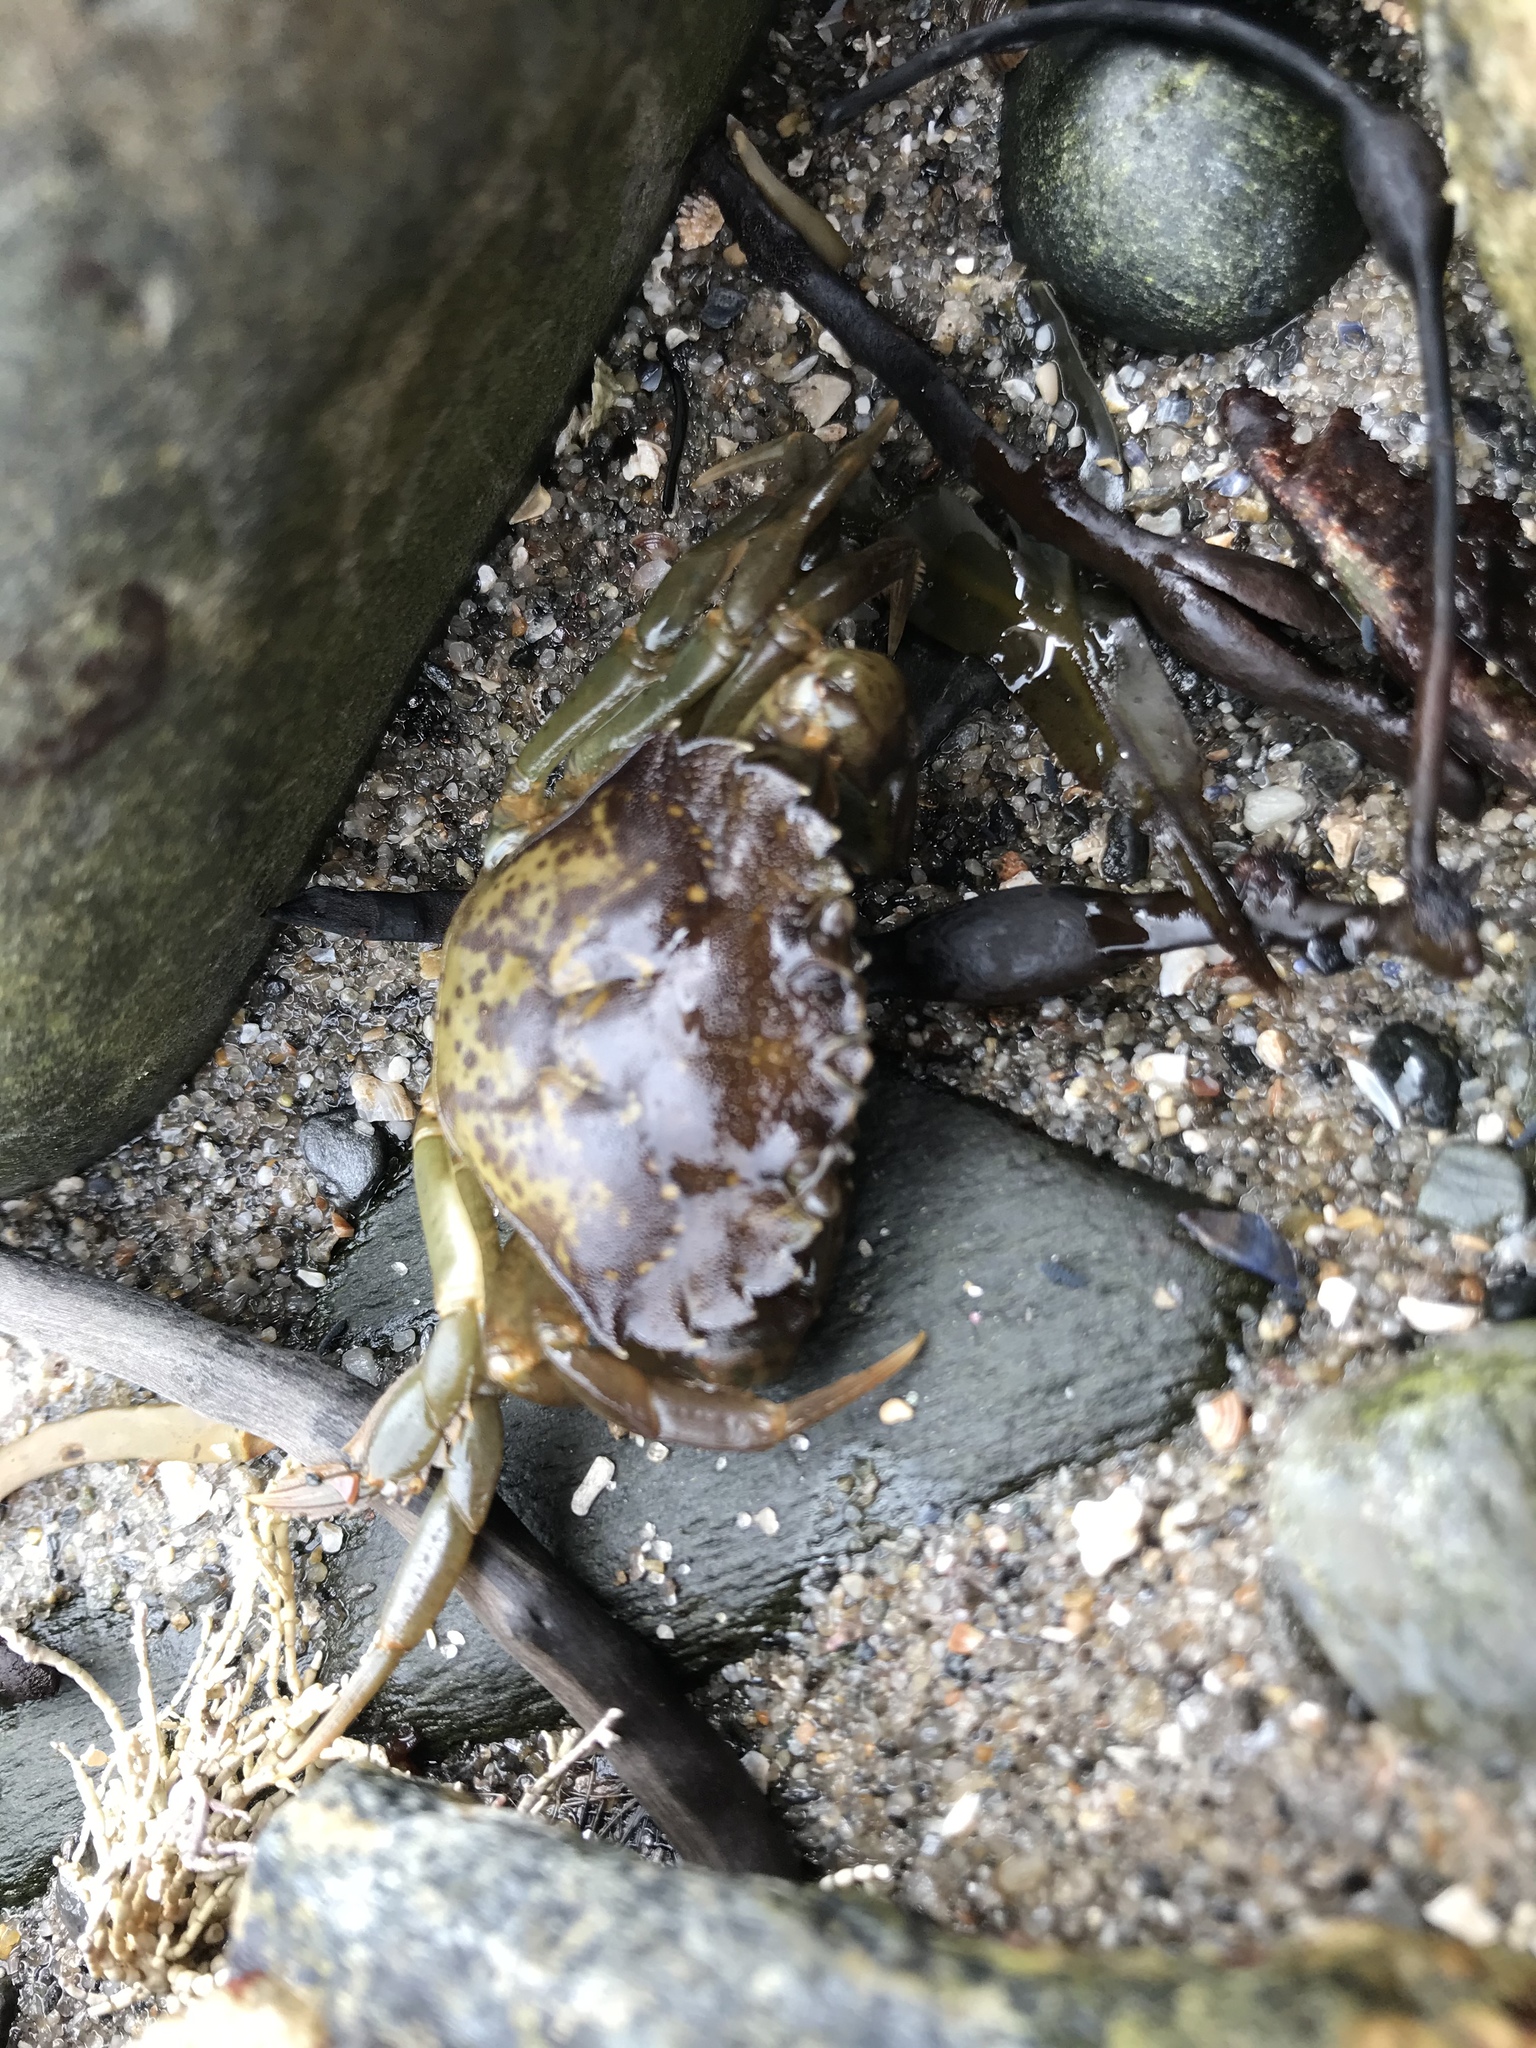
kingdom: Animalia
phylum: Arthropoda
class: Malacostraca
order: Decapoda
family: Carcinidae
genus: Carcinus
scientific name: Carcinus maenas
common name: European green crab
